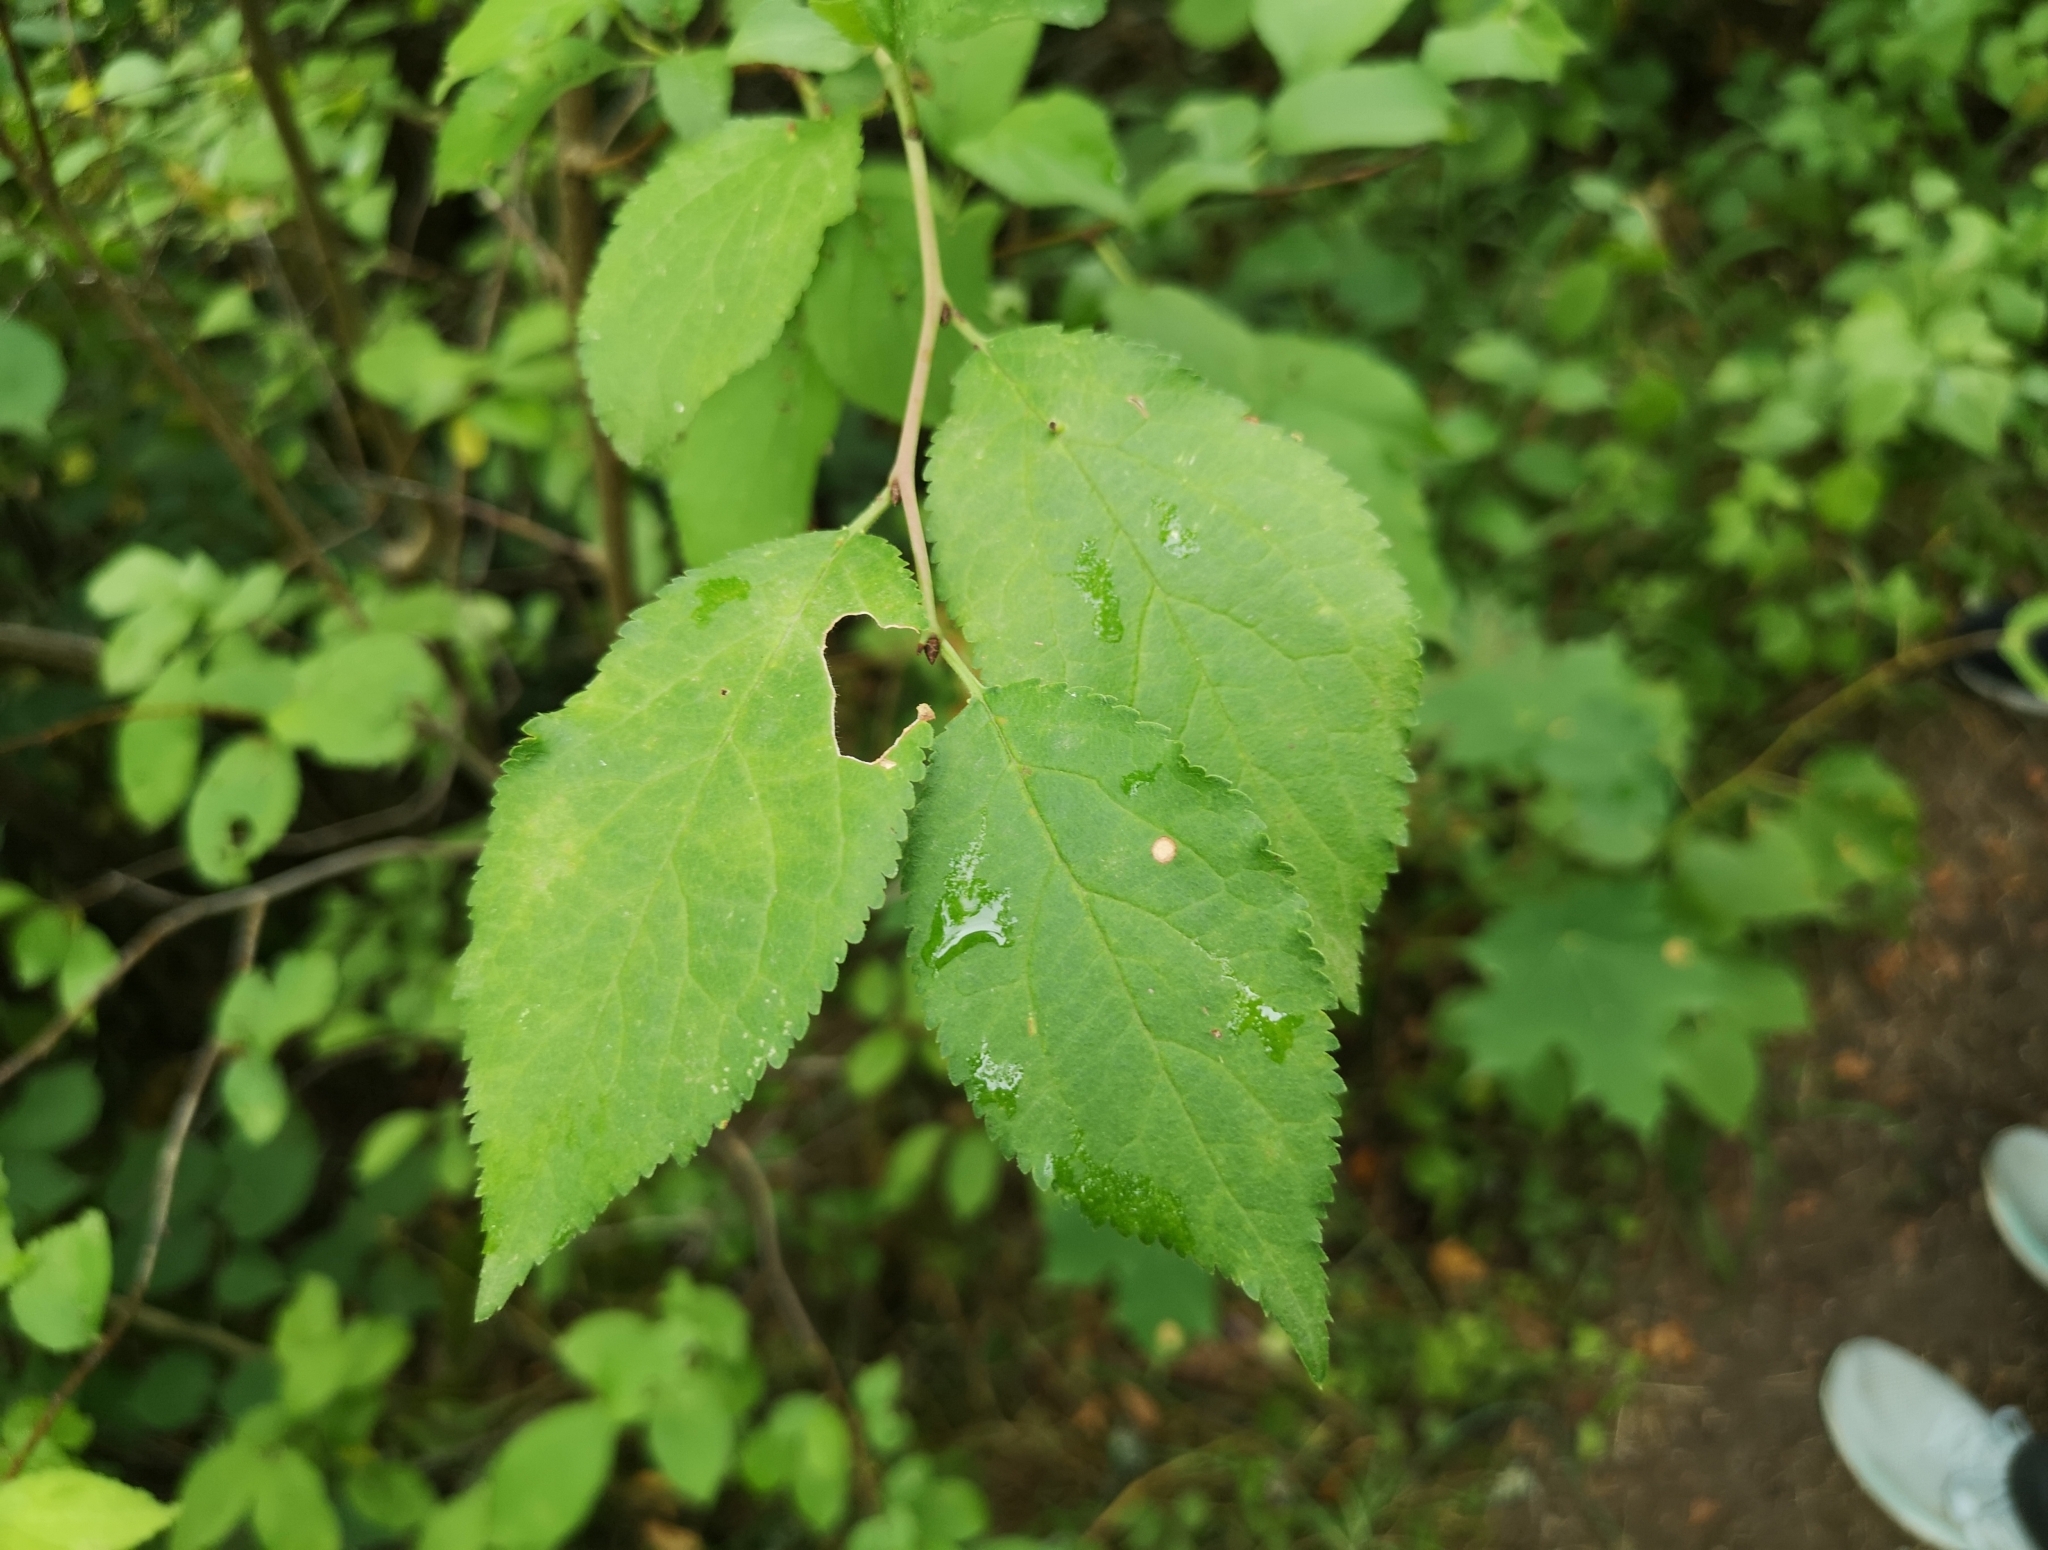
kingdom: Plantae
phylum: Tracheophyta
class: Magnoliopsida
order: Rosales
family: Rosaceae
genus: Prunus
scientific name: Prunus cerasifera
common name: Cherry plum
